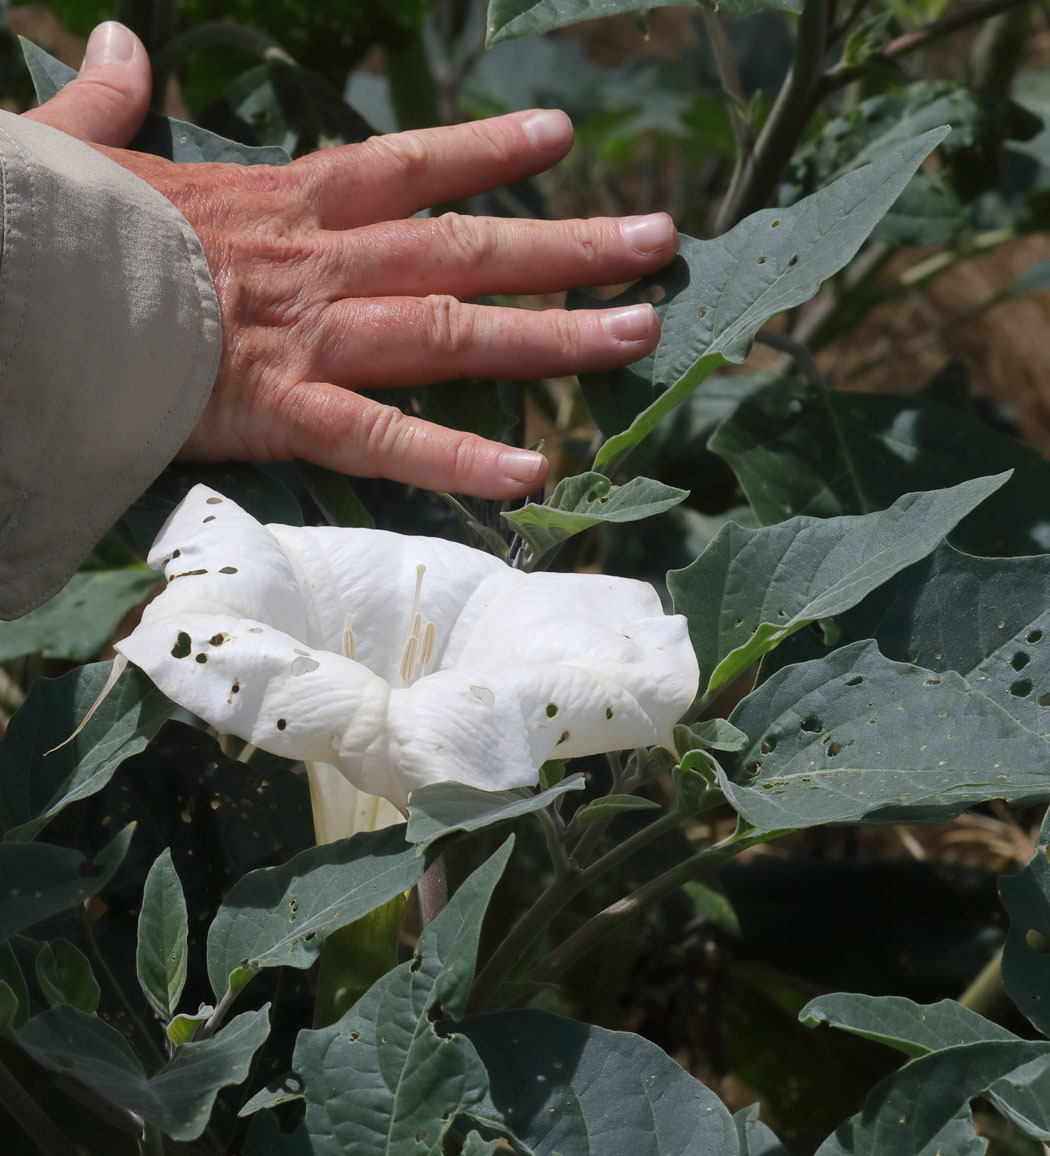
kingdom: Plantae
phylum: Tracheophyta
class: Magnoliopsida
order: Solanales
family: Solanaceae
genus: Datura
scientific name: Datura wrightii
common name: Sacred thorn-apple
